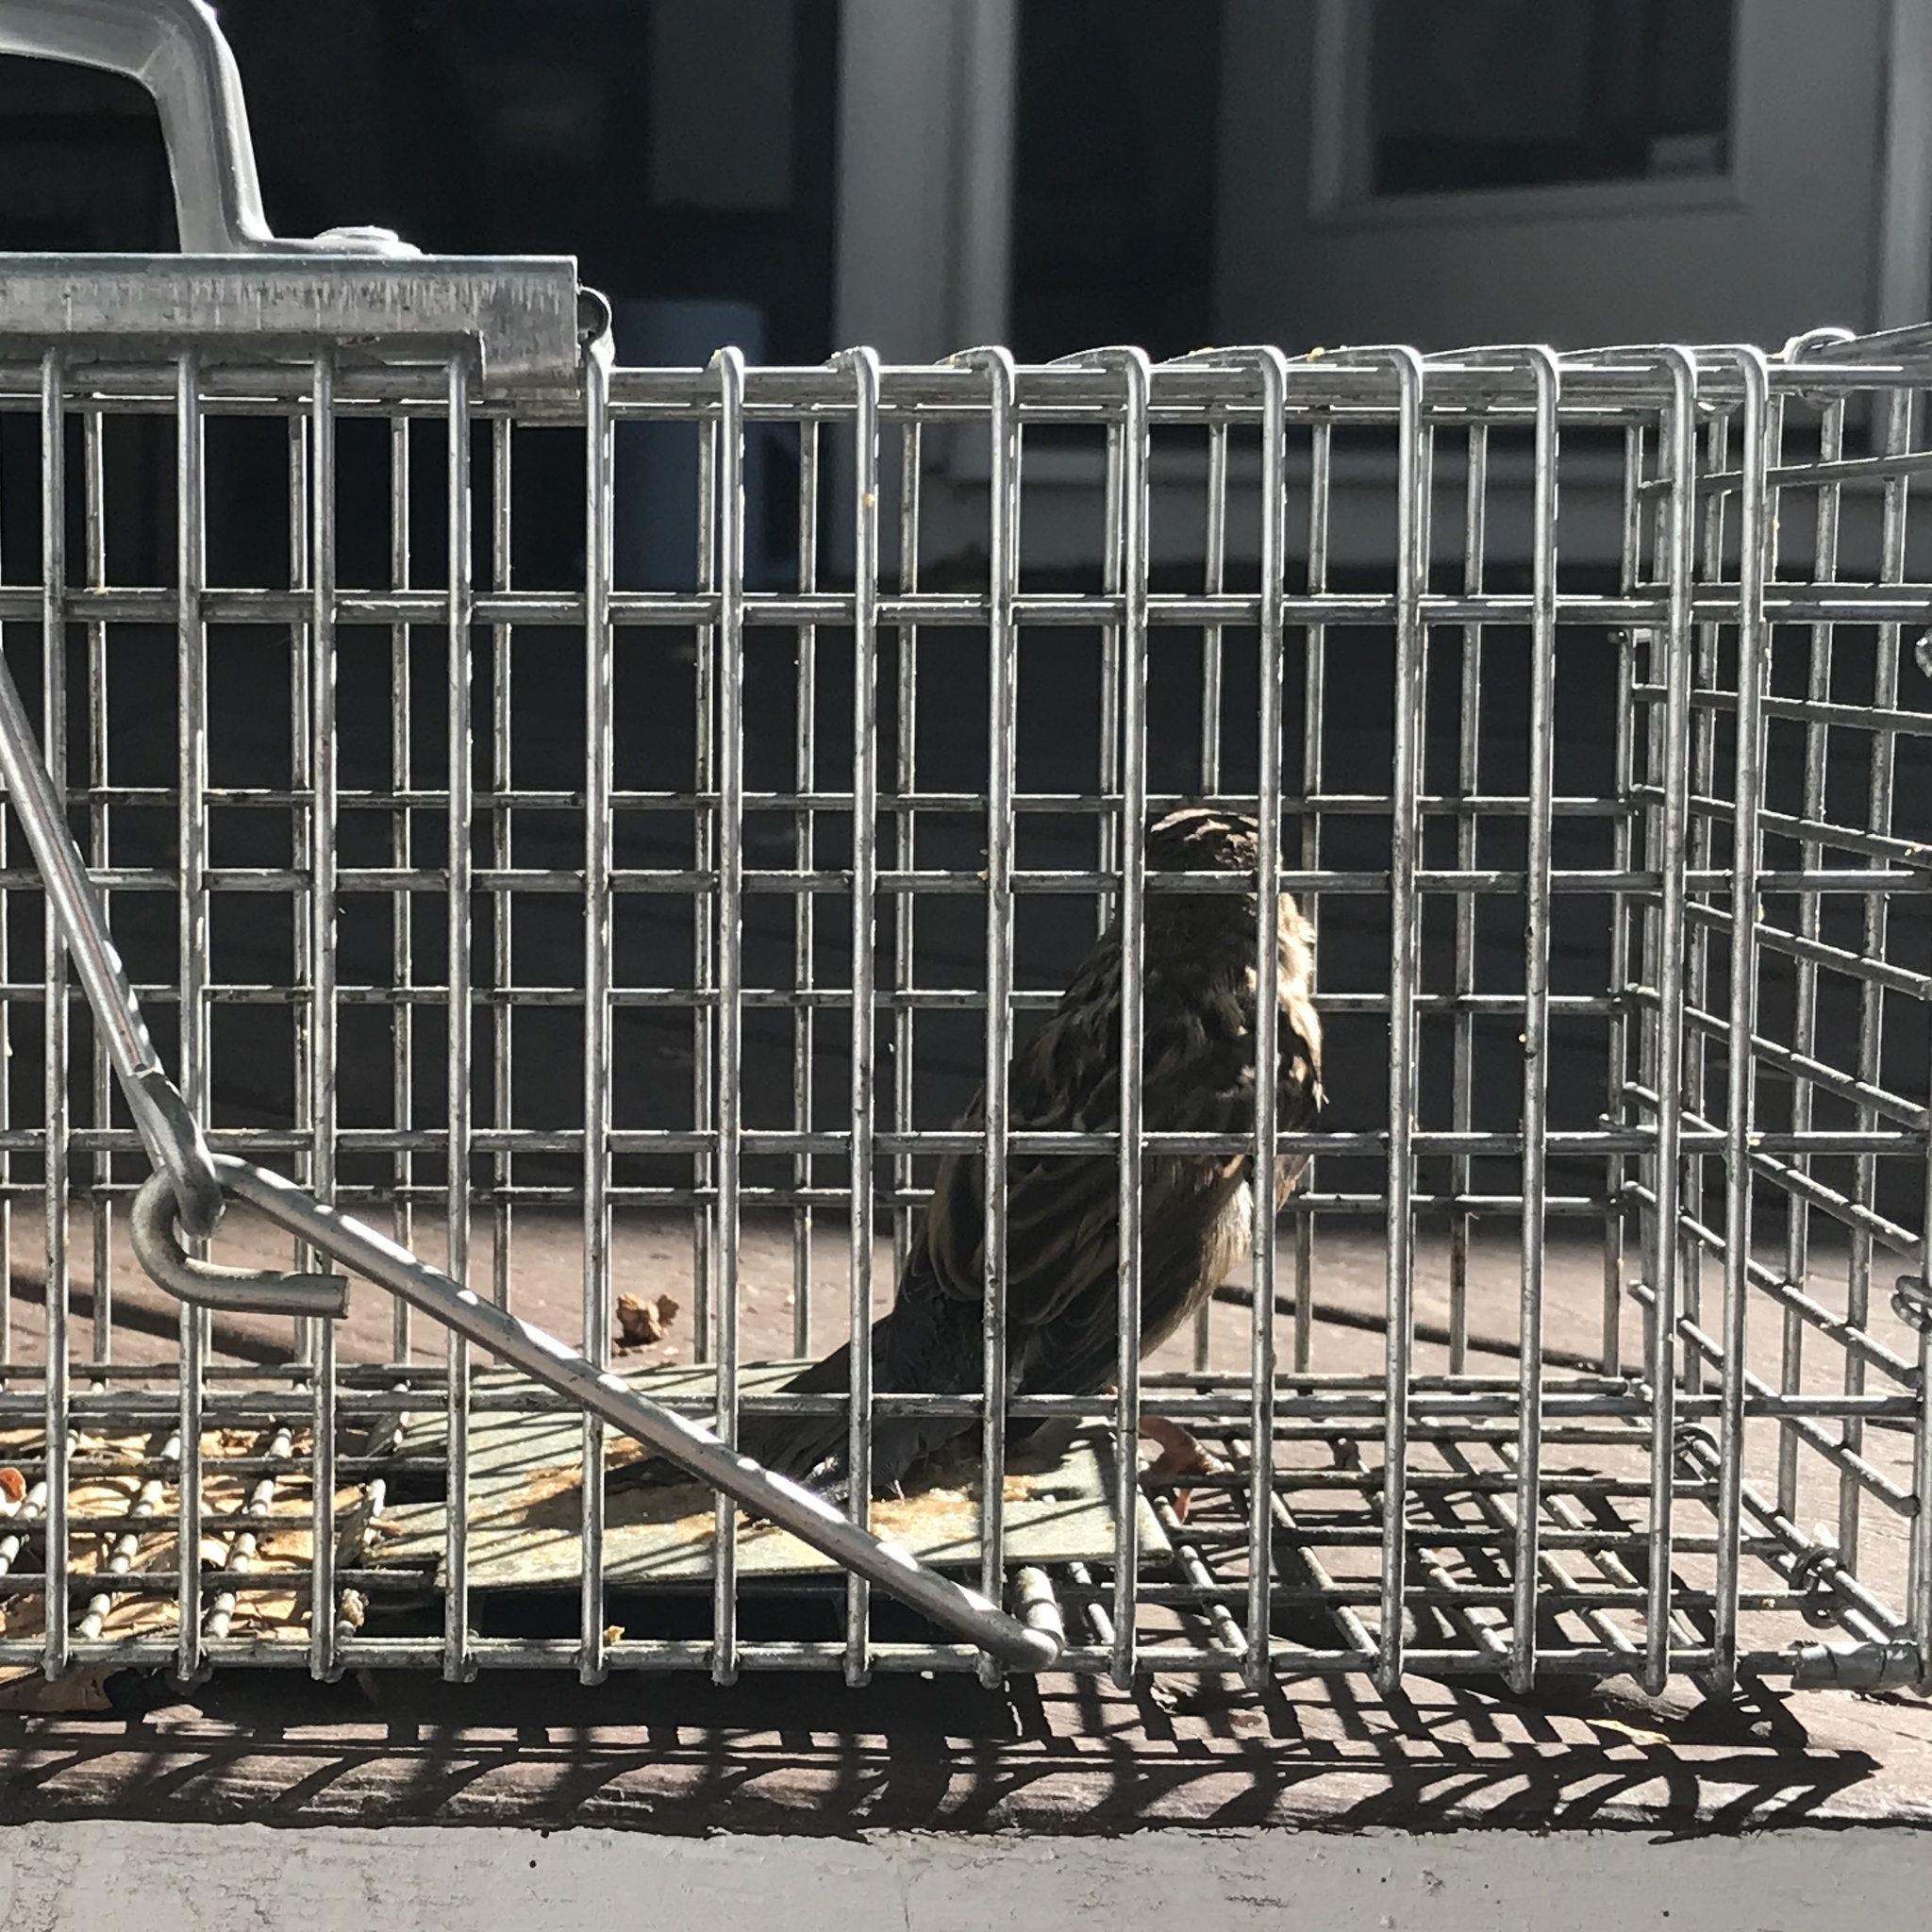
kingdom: Animalia
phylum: Chordata
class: Aves
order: Passeriformes
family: Passeridae
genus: Passer
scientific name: Passer domesticus
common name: House sparrow
